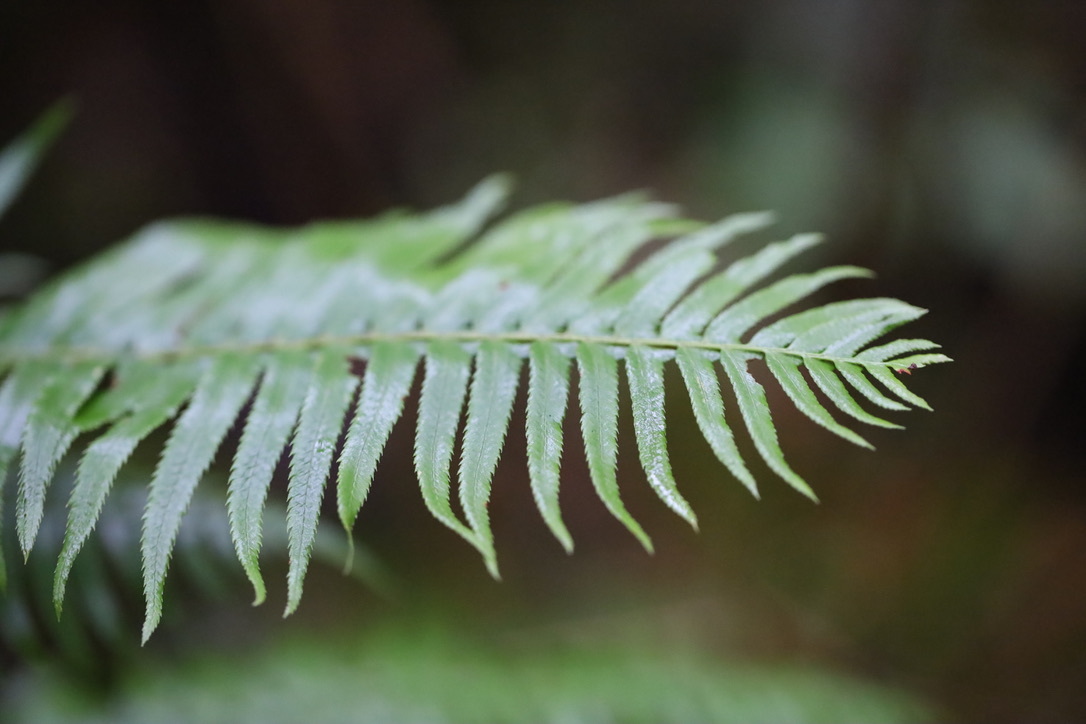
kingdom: Plantae
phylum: Tracheophyta
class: Polypodiopsida
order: Polypodiales
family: Dryopteridaceae
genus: Polystichum
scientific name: Polystichum munitum
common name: Western sword-fern
